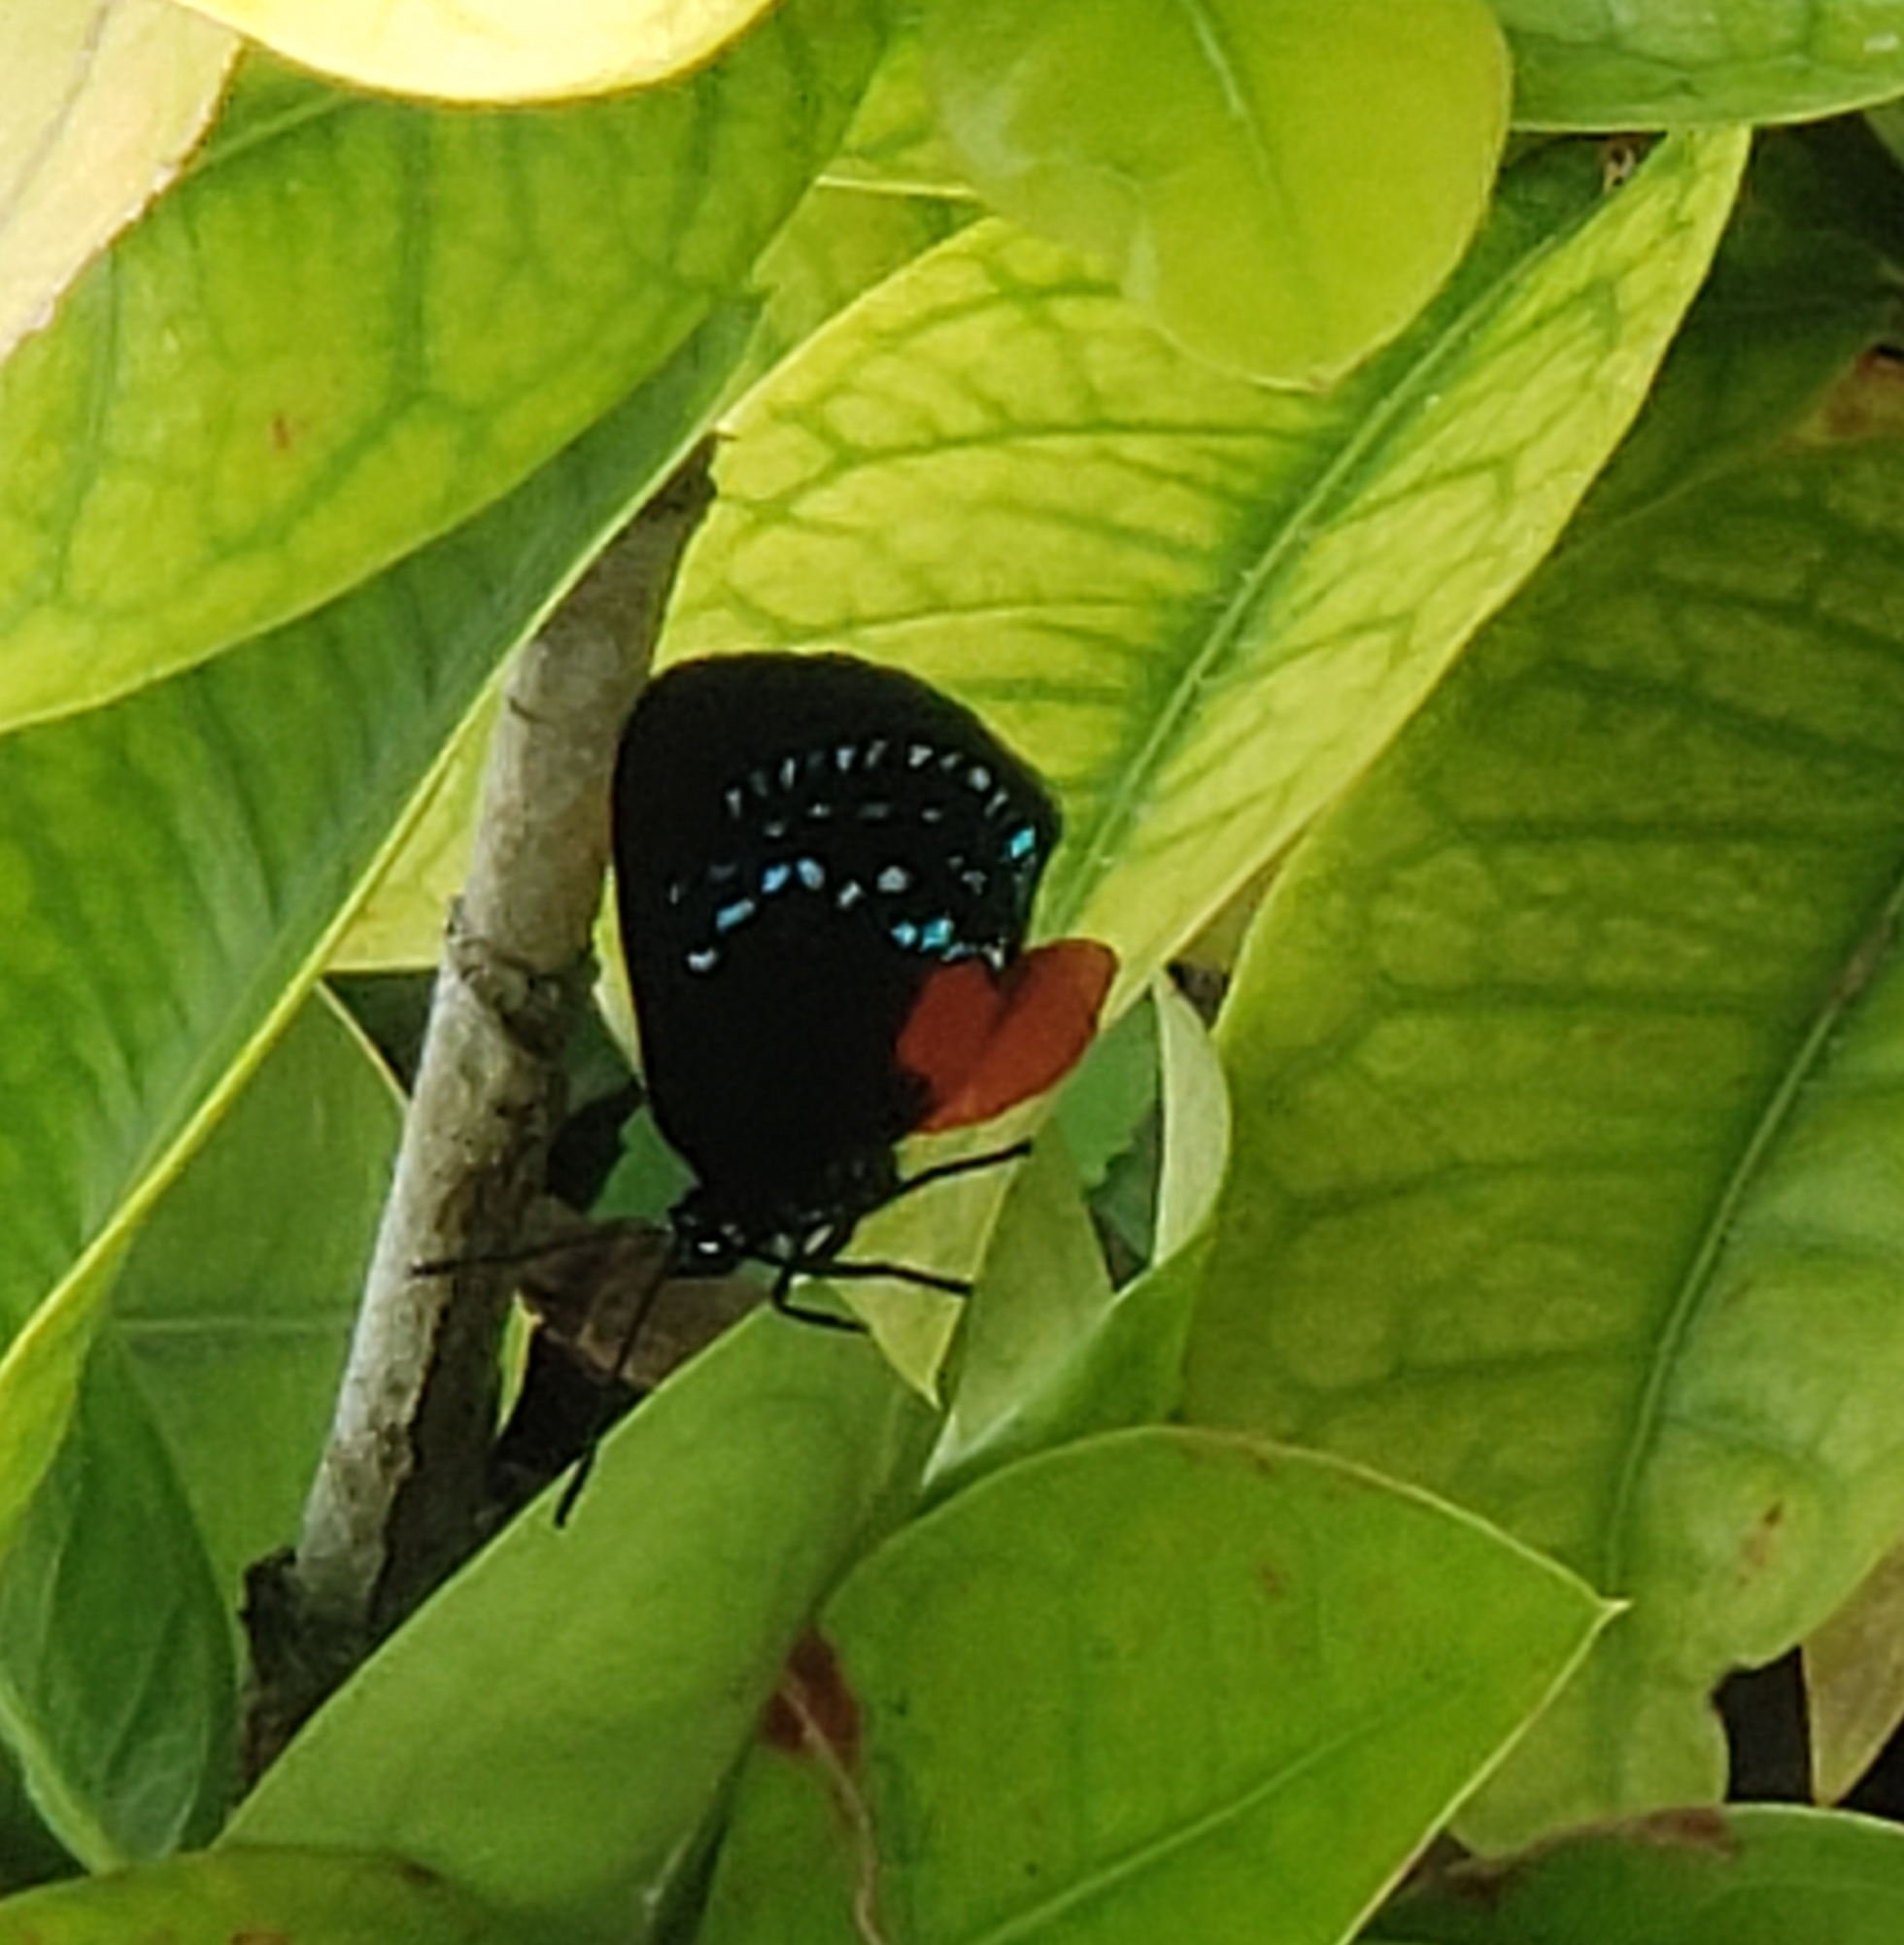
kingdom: Animalia
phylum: Arthropoda
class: Insecta
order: Lepidoptera
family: Lycaenidae
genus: Eumaeus
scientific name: Eumaeus atala
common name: Atala
